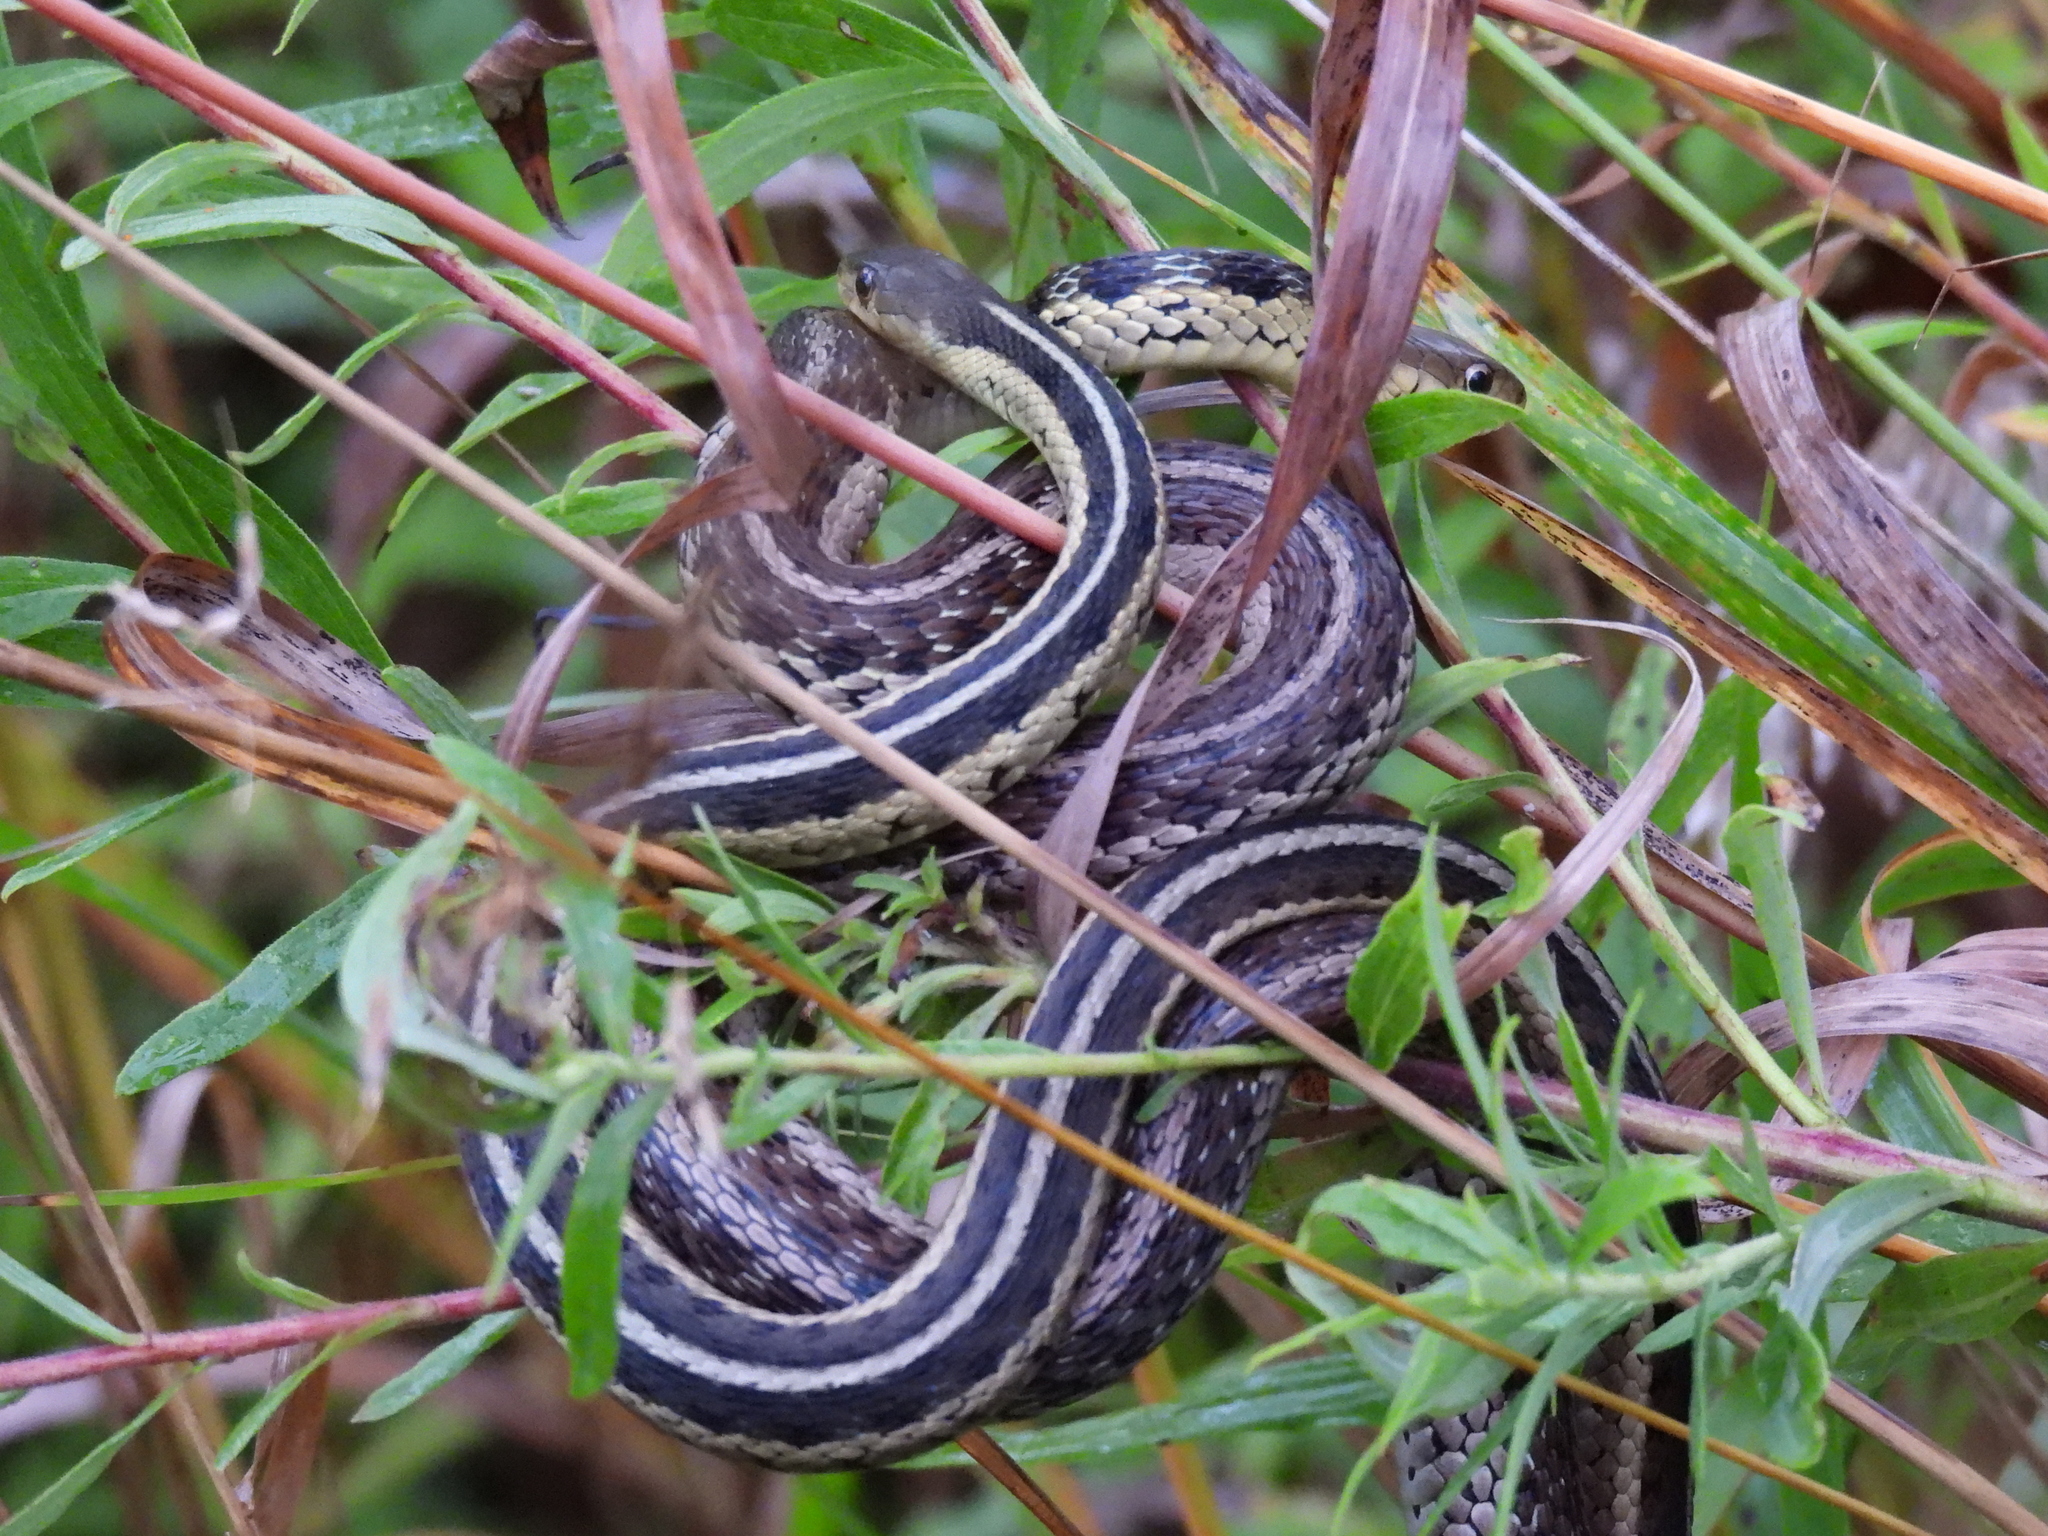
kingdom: Animalia
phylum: Chordata
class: Squamata
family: Colubridae
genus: Thamnophis
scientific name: Thamnophis sirtalis
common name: Common garter snake
